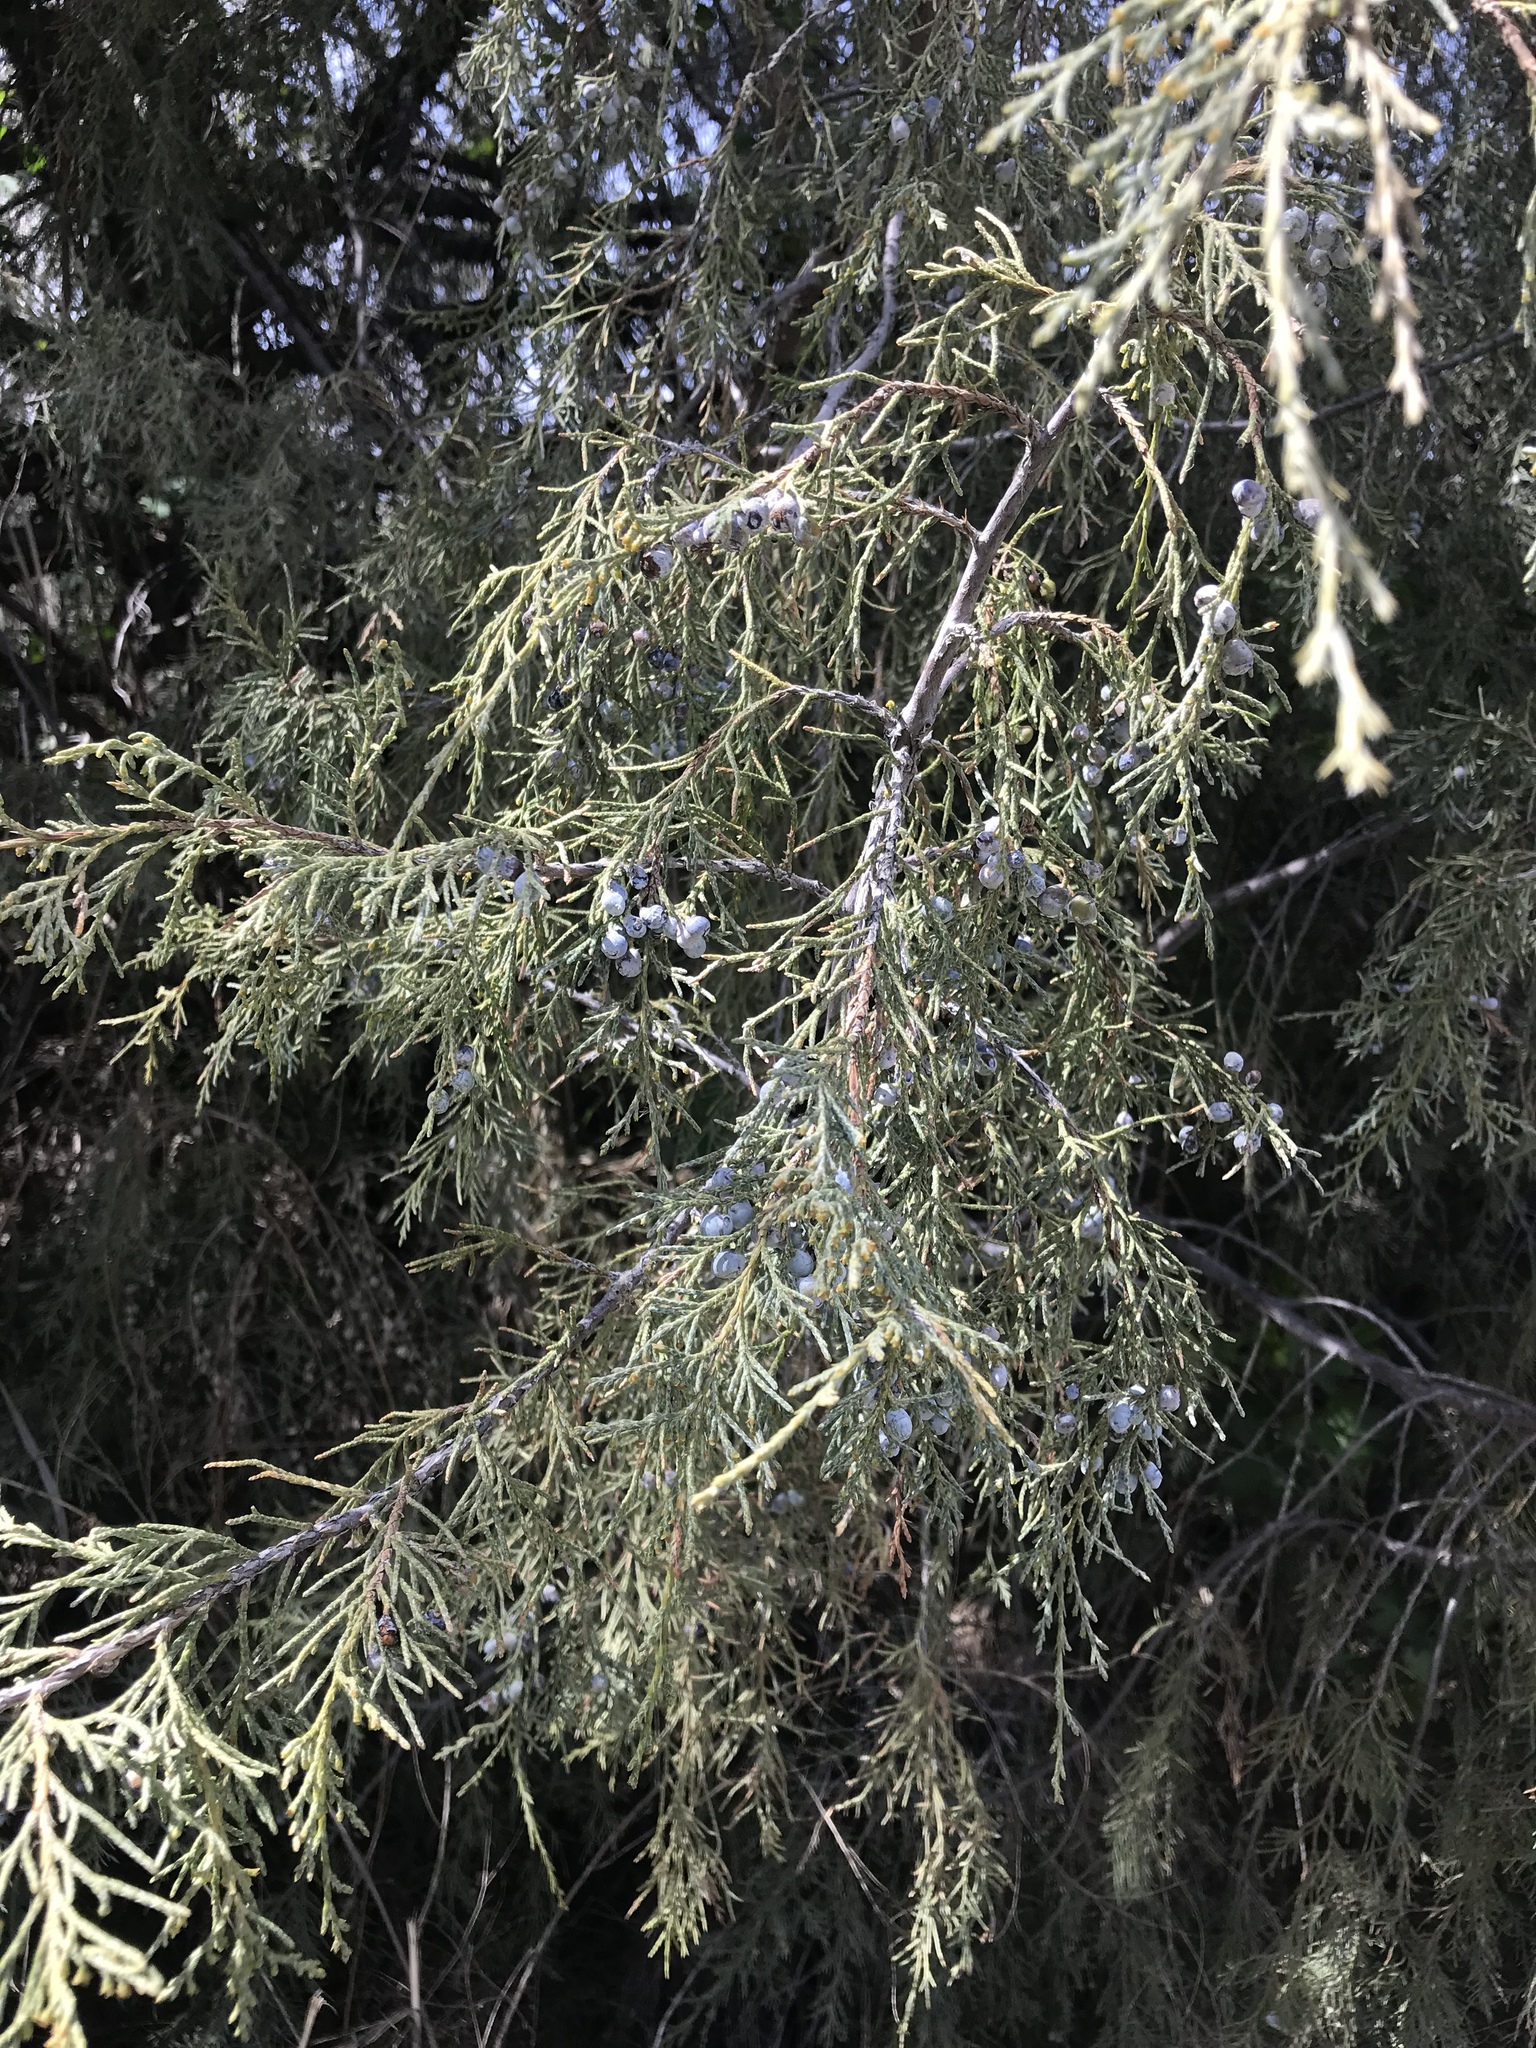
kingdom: Plantae
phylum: Tracheophyta
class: Pinopsida
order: Pinales
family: Cupressaceae
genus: Juniperus
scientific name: Juniperus scopulorum
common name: Rocky mountain juniper
